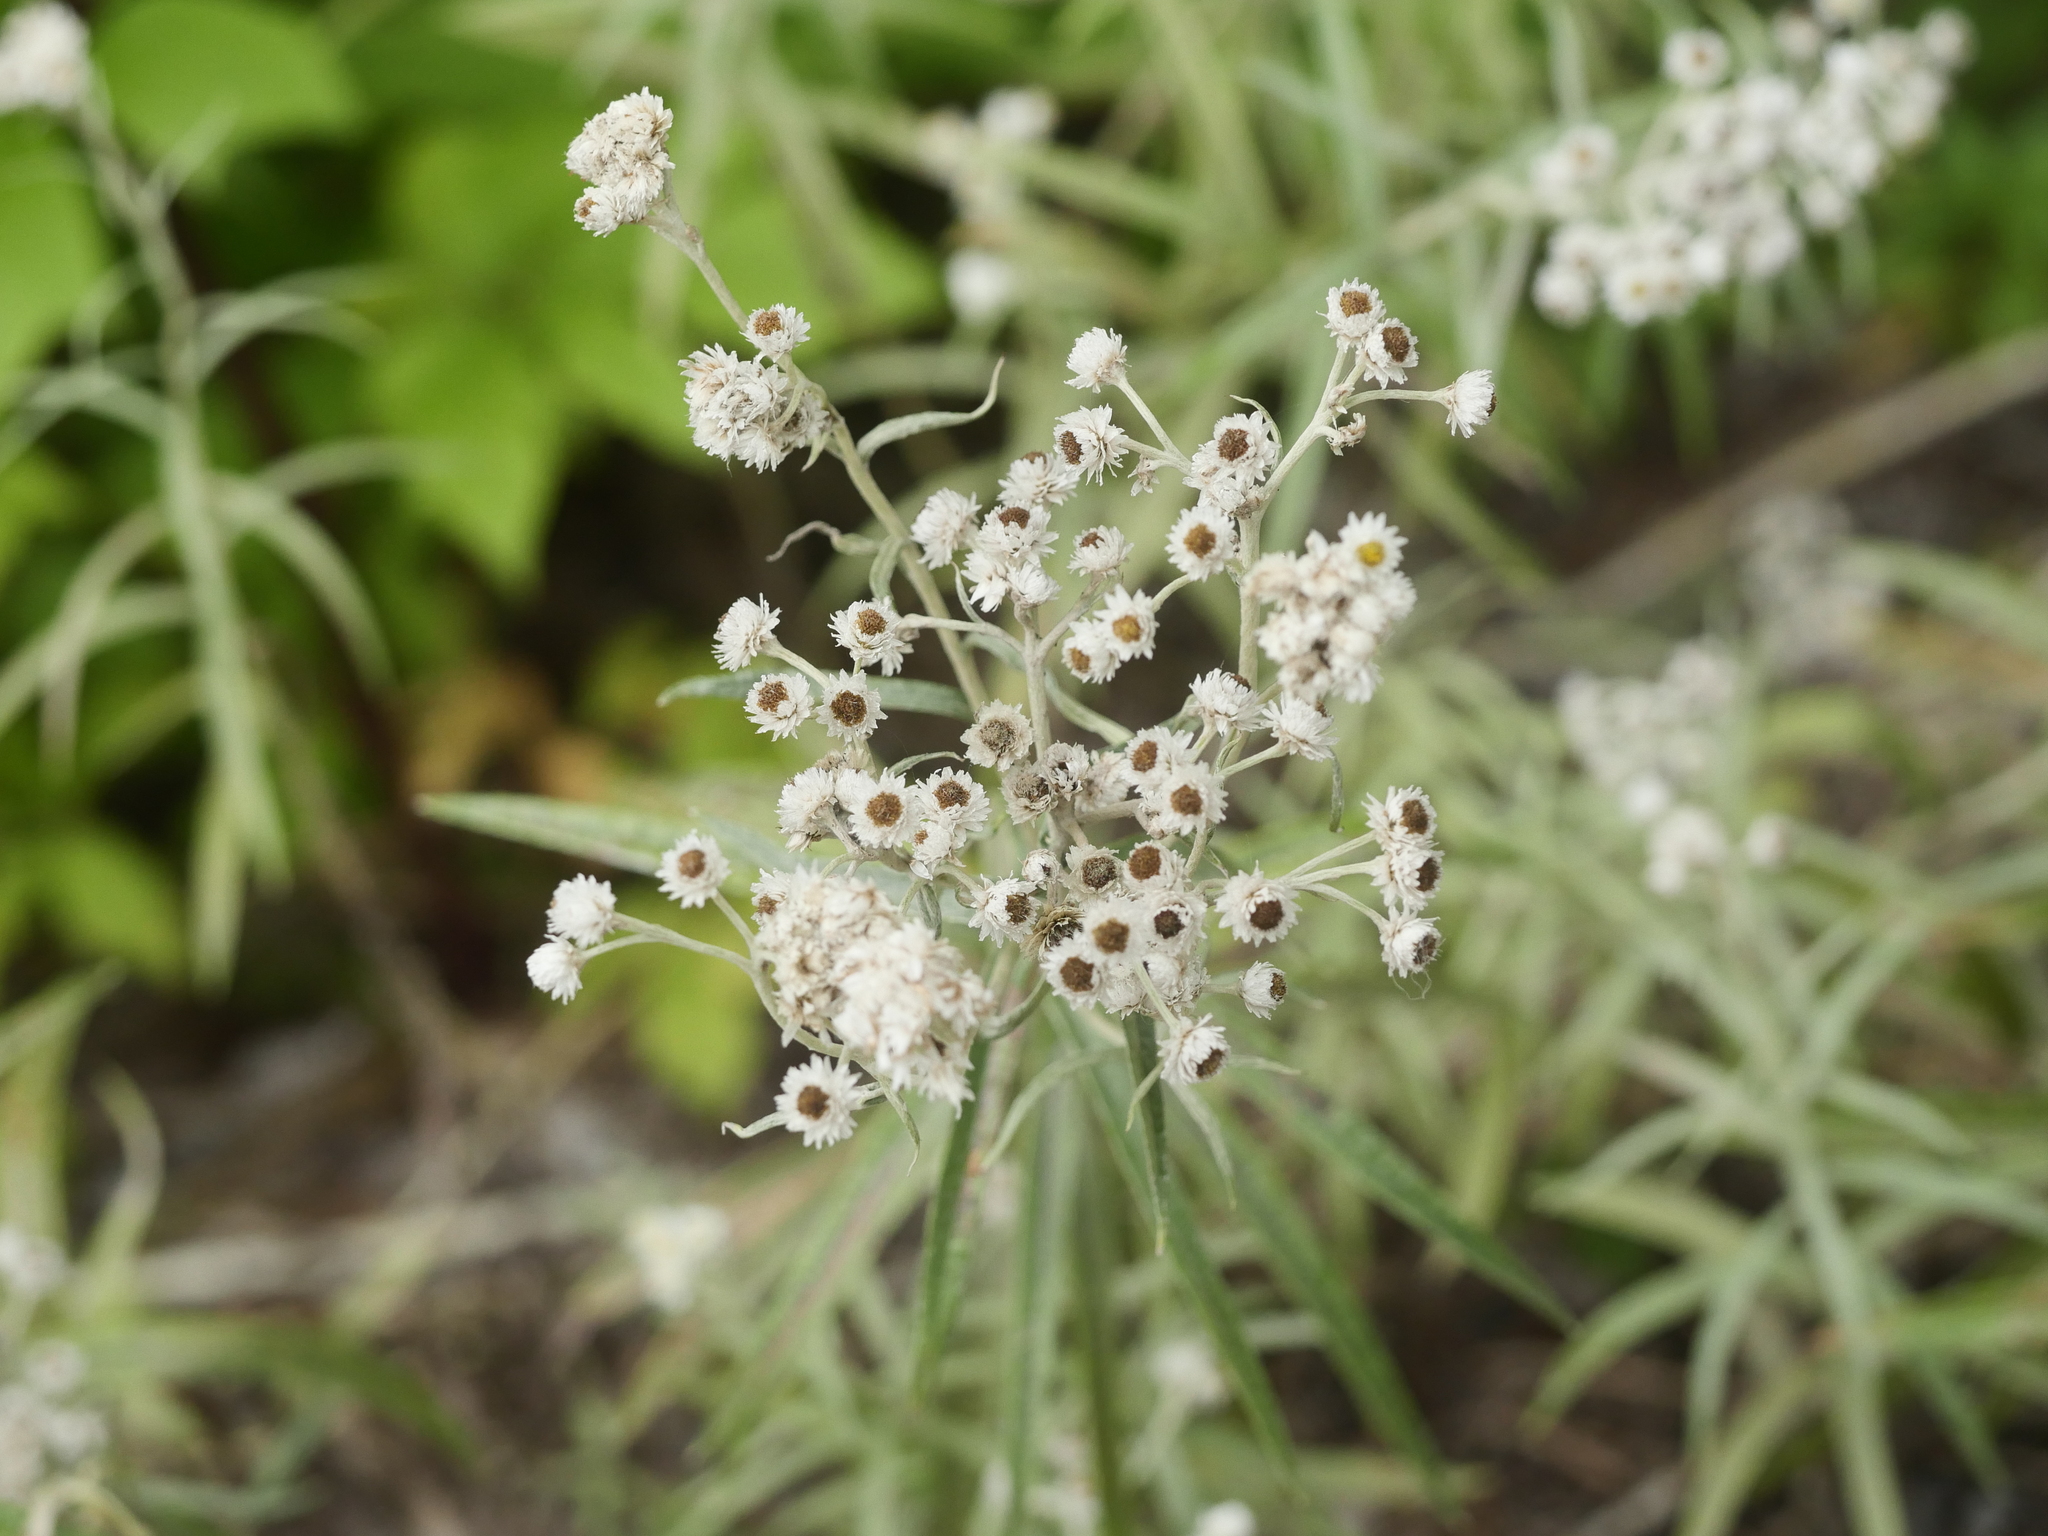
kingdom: Plantae
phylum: Tracheophyta
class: Magnoliopsida
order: Asterales
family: Asteraceae
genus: Anaphalis
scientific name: Anaphalis margaritacea
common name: Pearly everlasting
